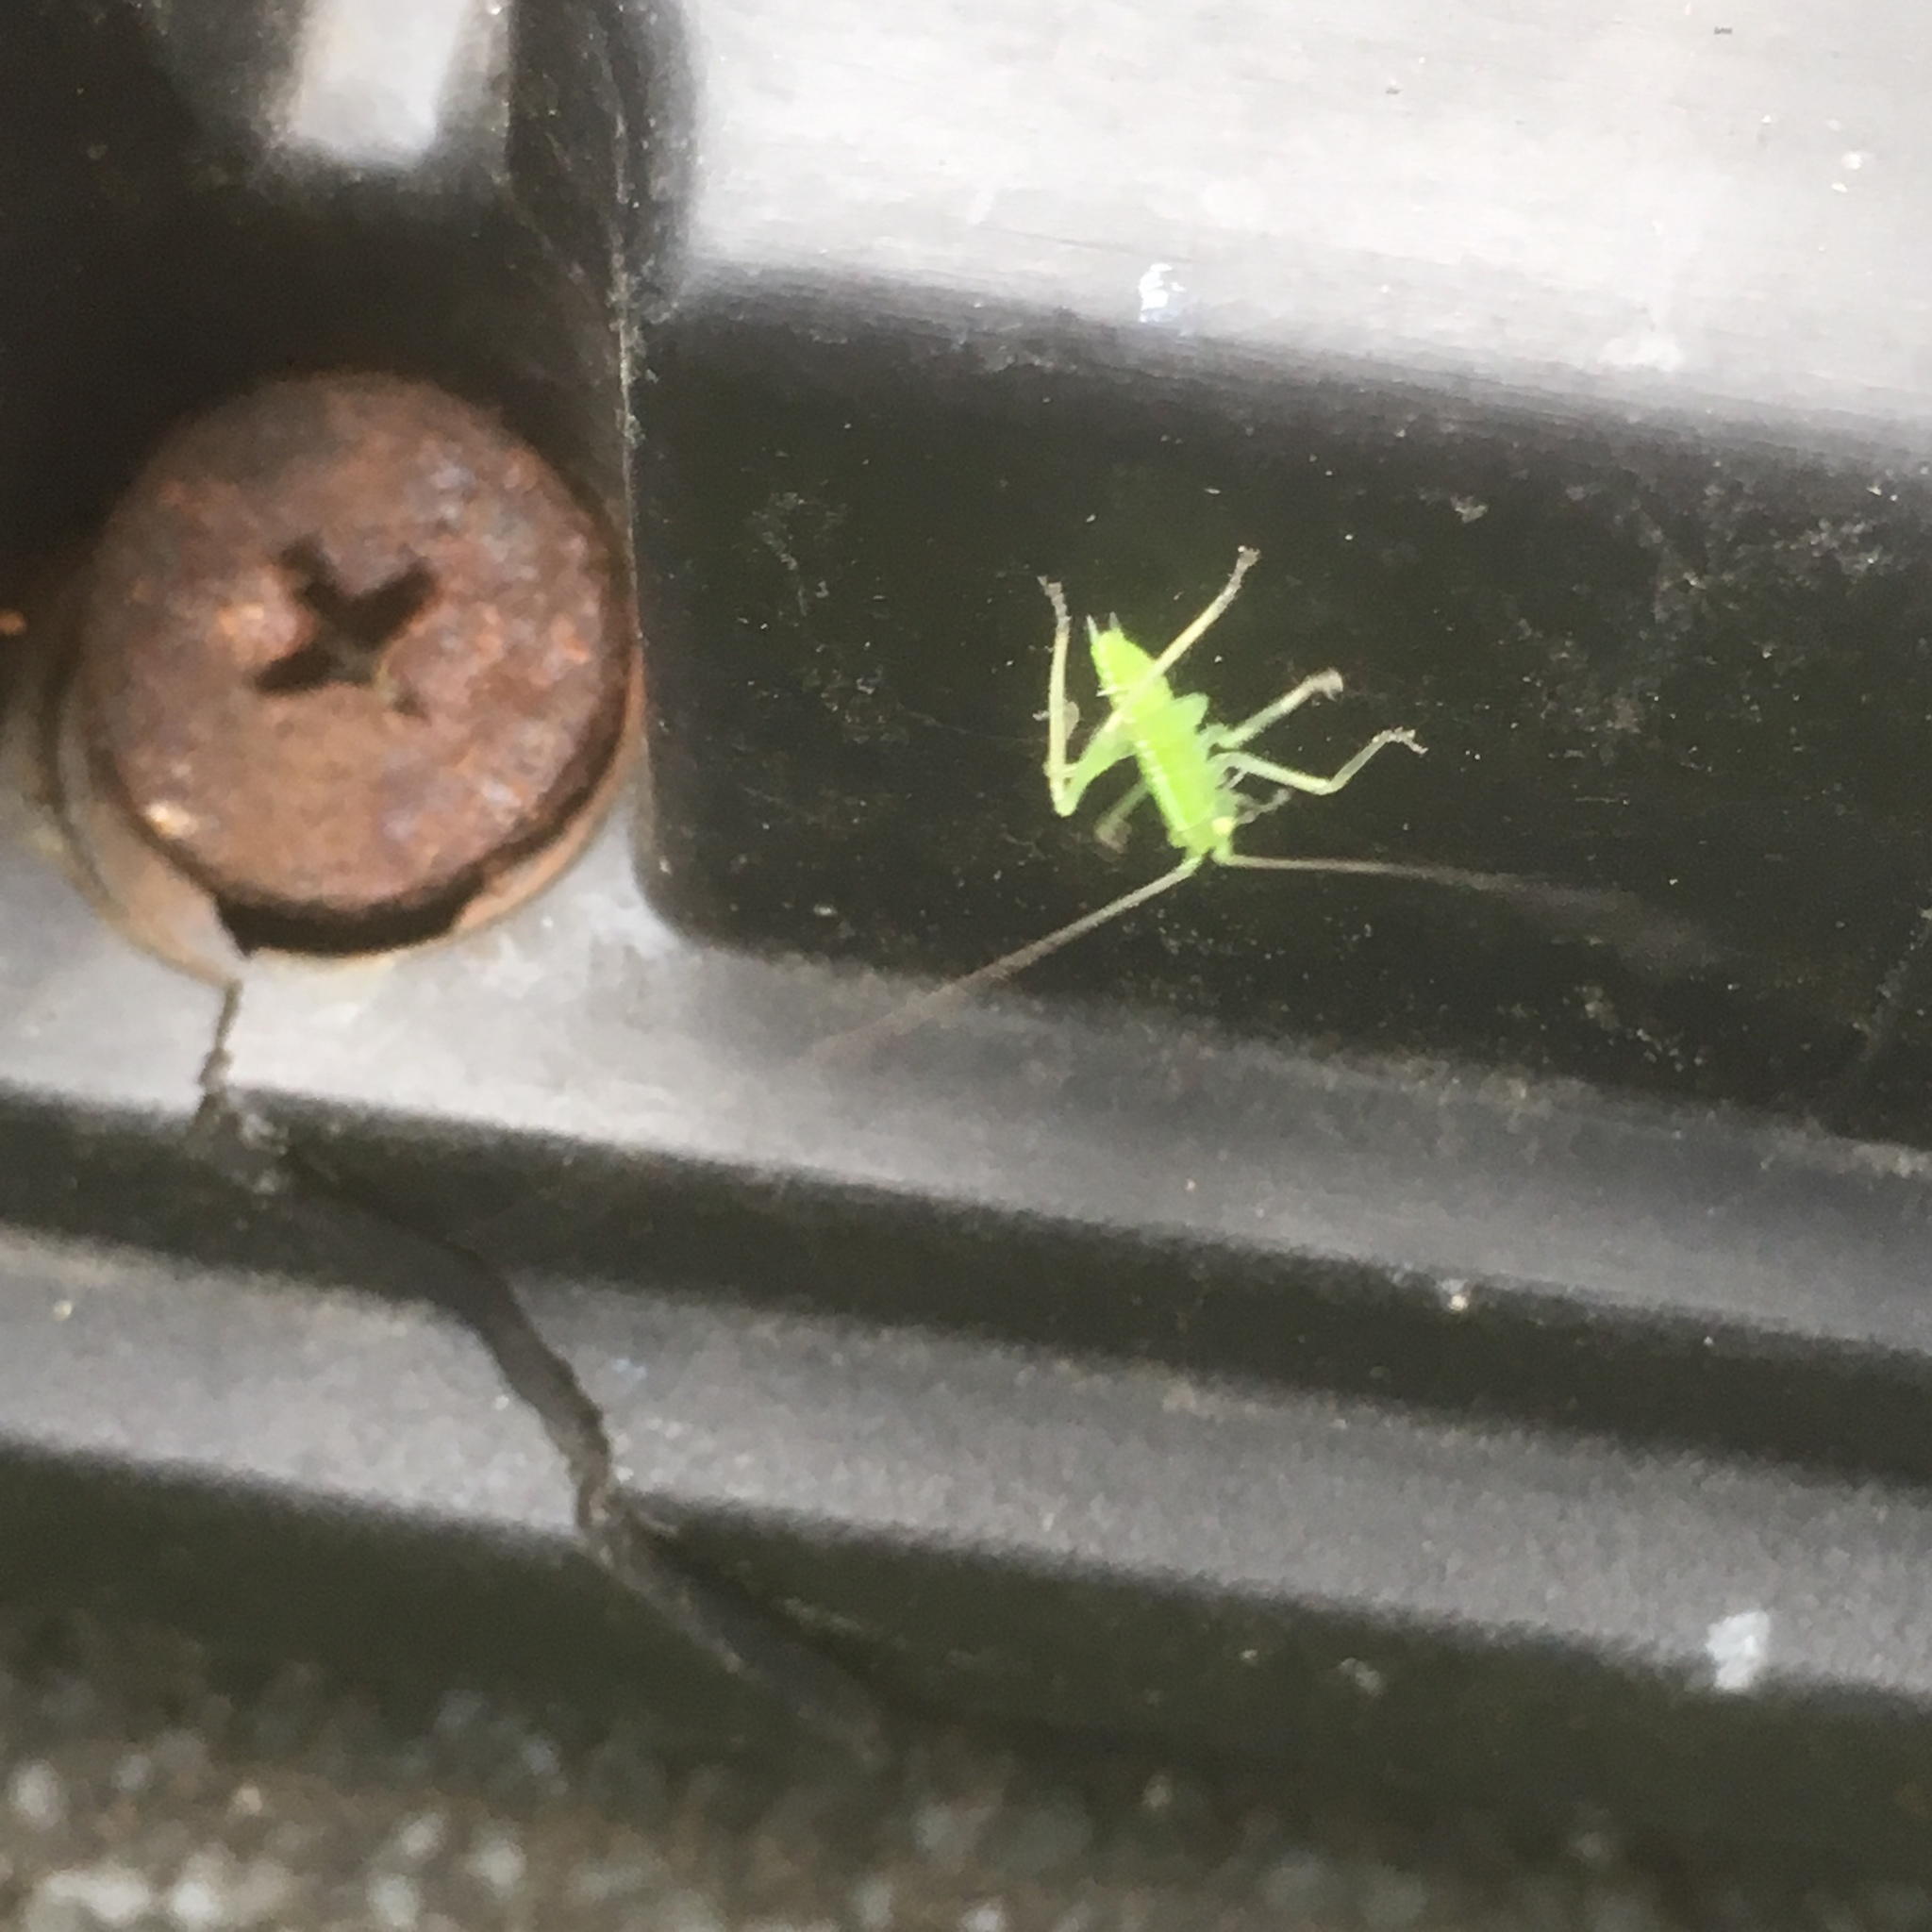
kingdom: Animalia
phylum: Arthropoda
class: Insecta
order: Orthoptera
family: Tettigoniidae
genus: Meconema
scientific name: Meconema thalassinum
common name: Oak bush-cricket
